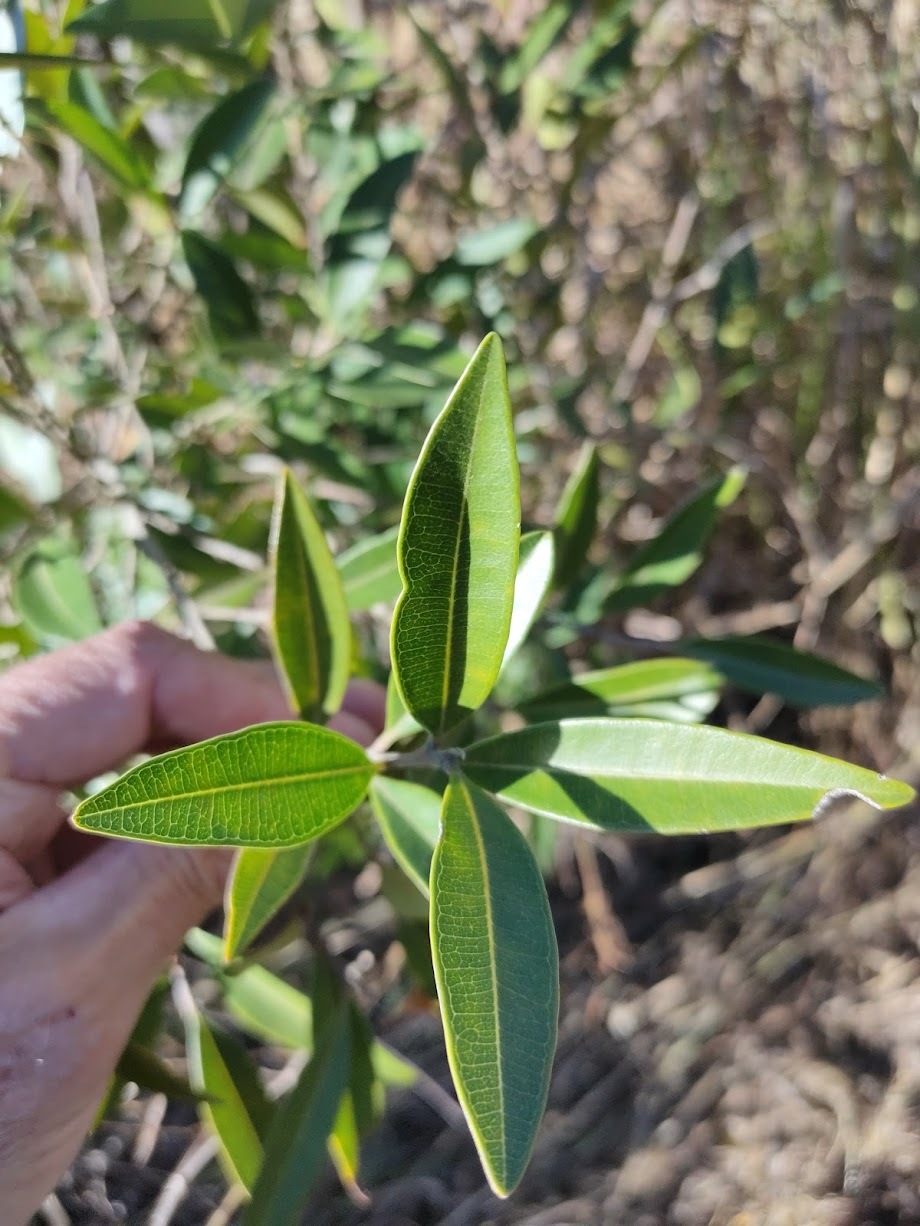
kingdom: Plantae
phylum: Tracheophyta
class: Magnoliopsida
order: Sapindales
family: Simaroubaceae
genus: Samadera
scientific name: Samadera bidwillii
